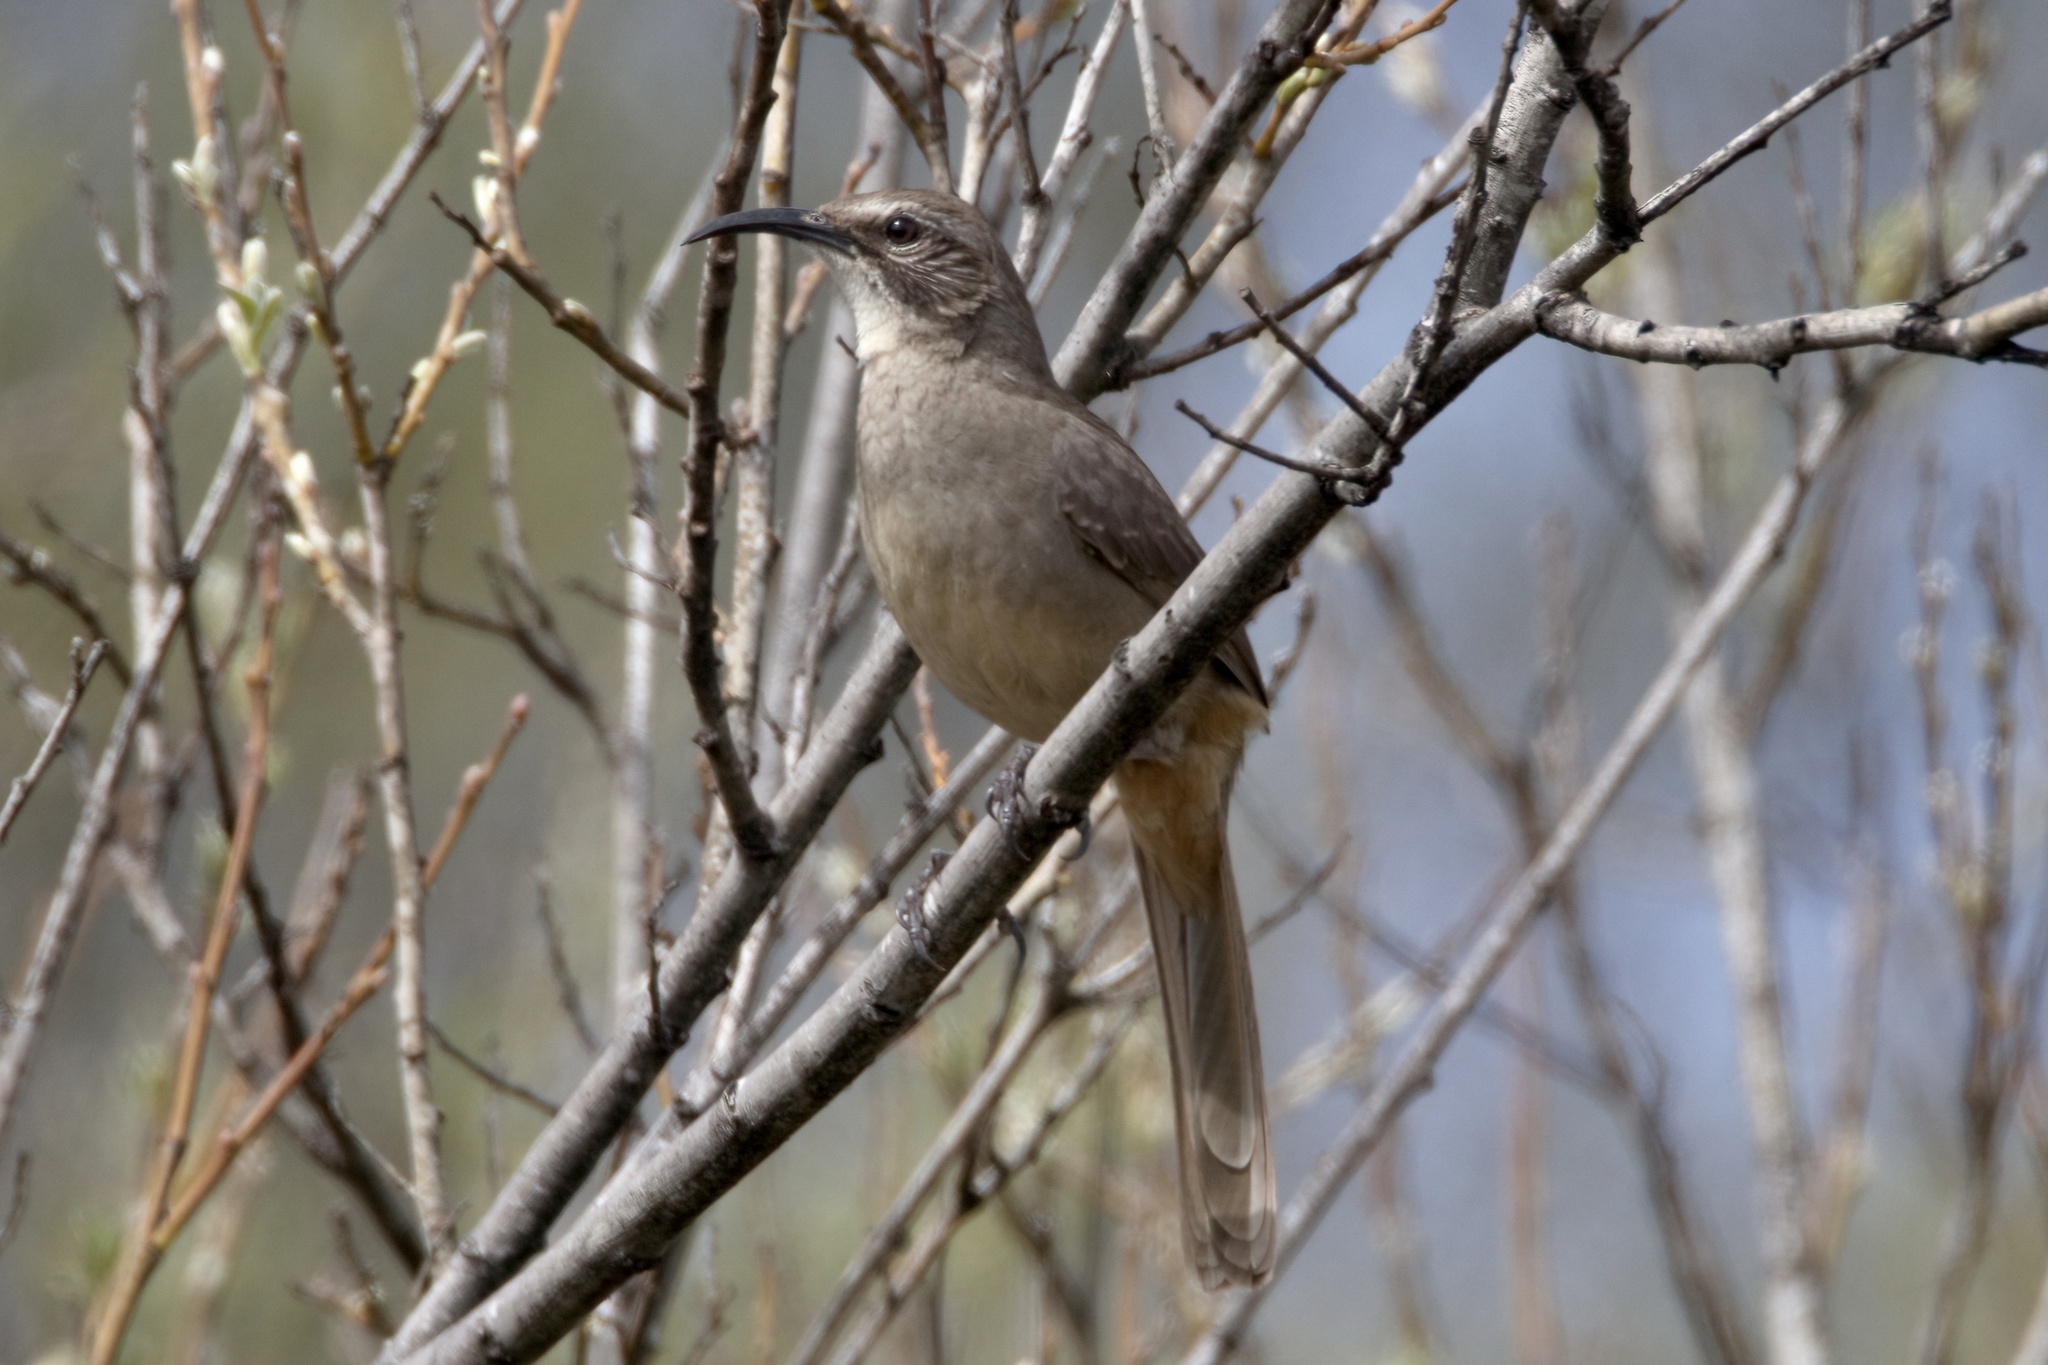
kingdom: Animalia
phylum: Chordata
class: Aves
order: Passeriformes
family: Mimidae
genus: Toxostoma
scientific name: Toxostoma redivivum
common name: California thrasher
